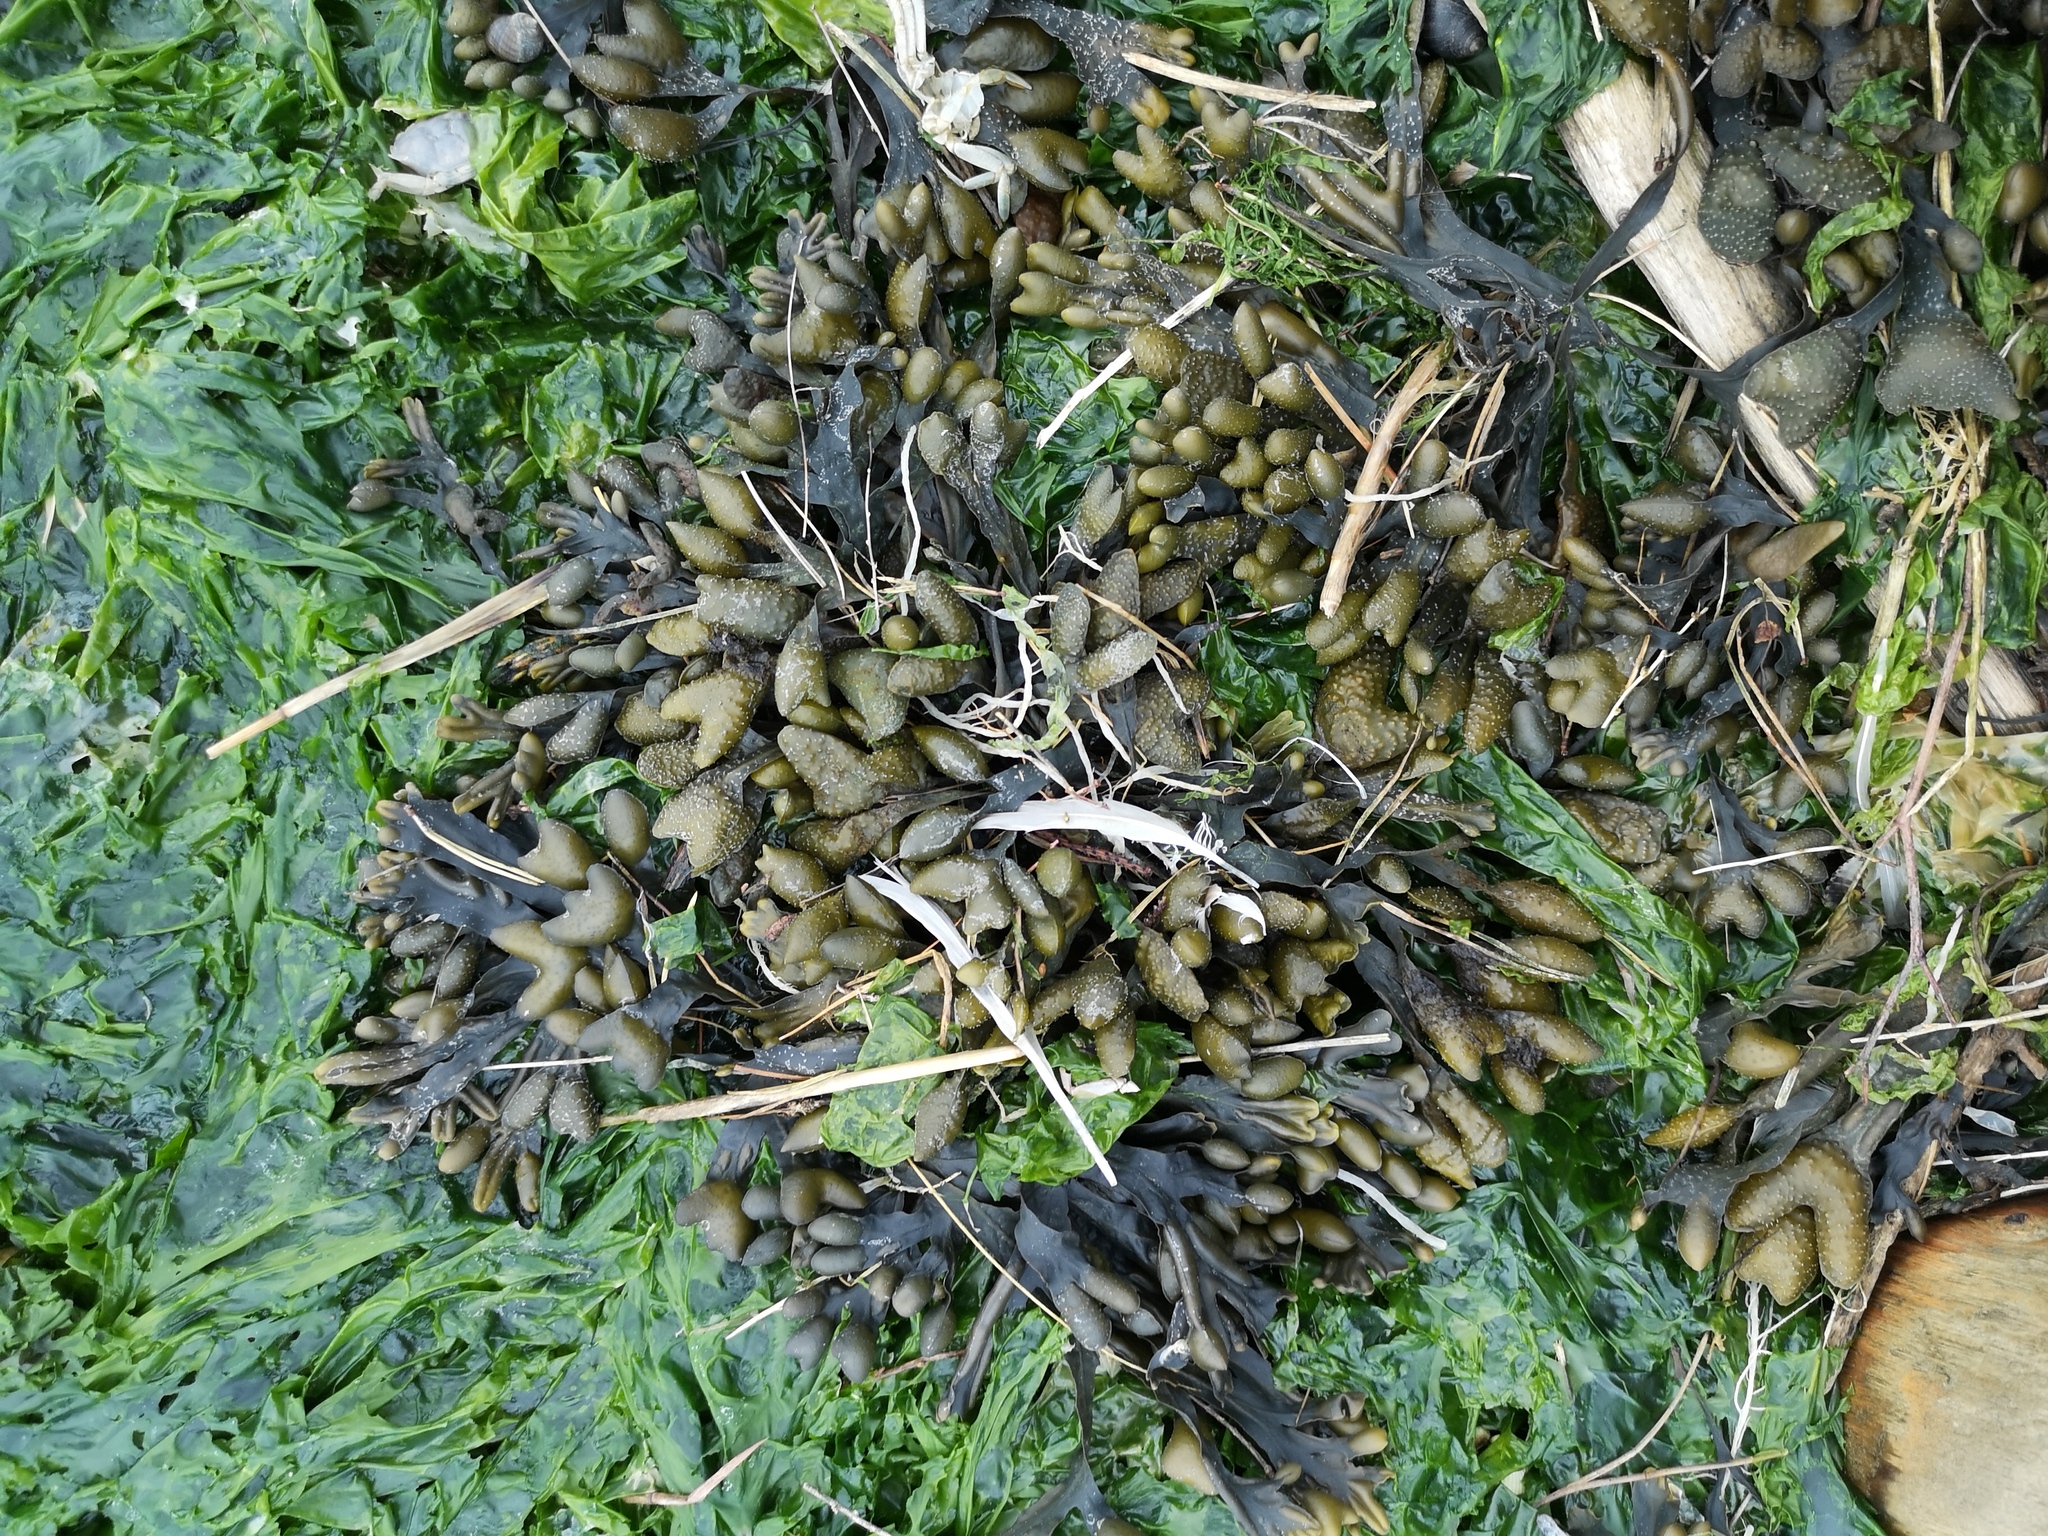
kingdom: Chromista
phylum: Ochrophyta
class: Phaeophyceae
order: Fucales
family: Fucaceae
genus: Fucus
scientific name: Fucus vesiculosus
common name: Bladder wrack
